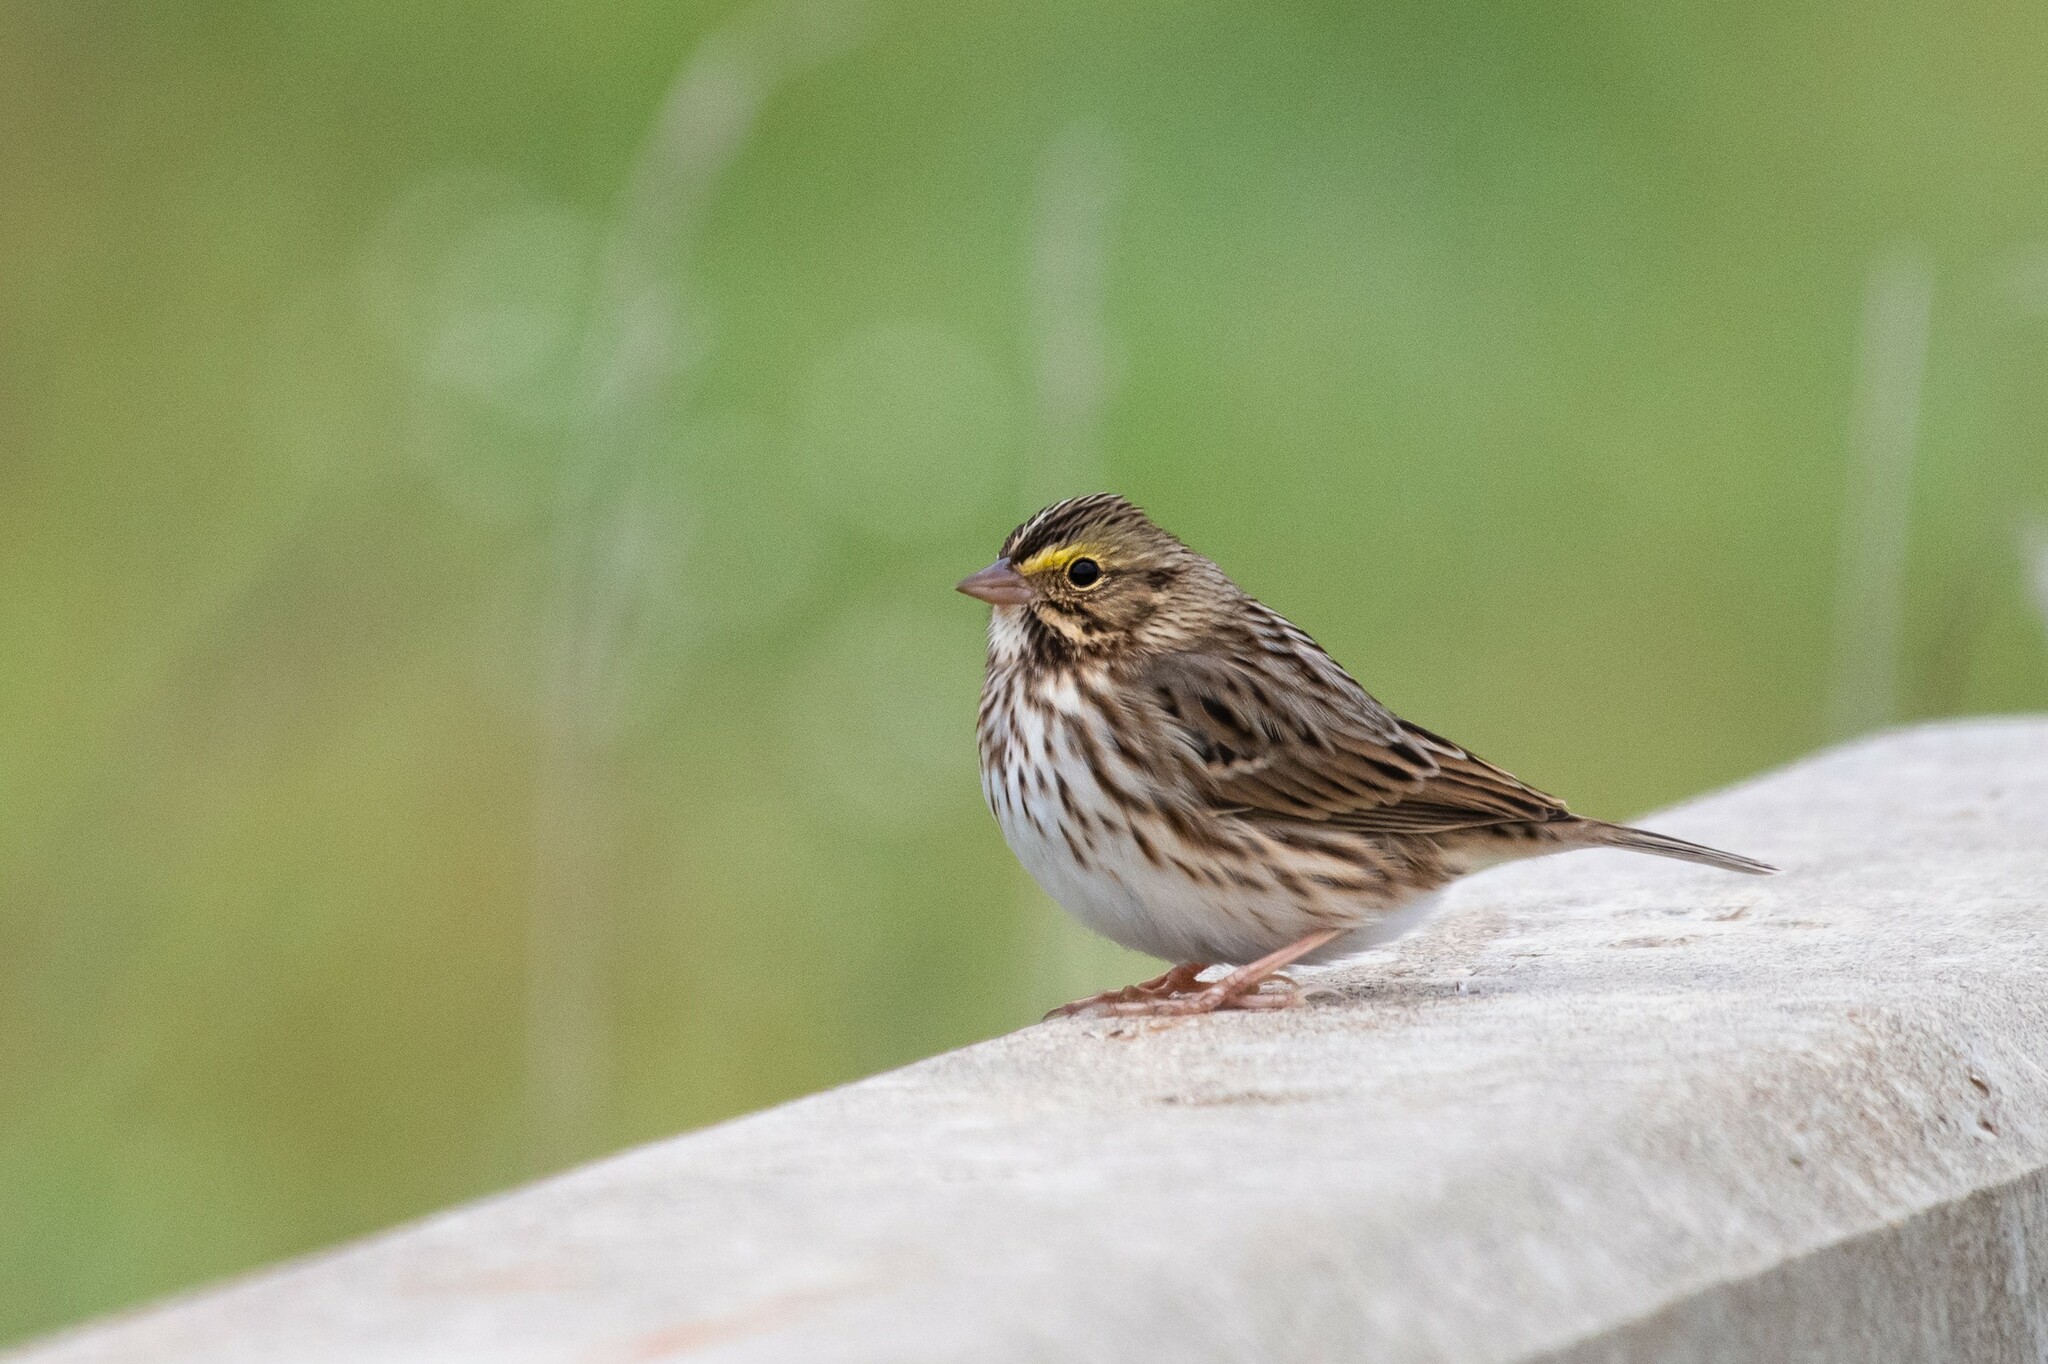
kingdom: Animalia
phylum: Chordata
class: Aves
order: Passeriformes
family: Passerellidae
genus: Passerculus
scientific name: Passerculus sandwichensis
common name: Savannah sparrow
